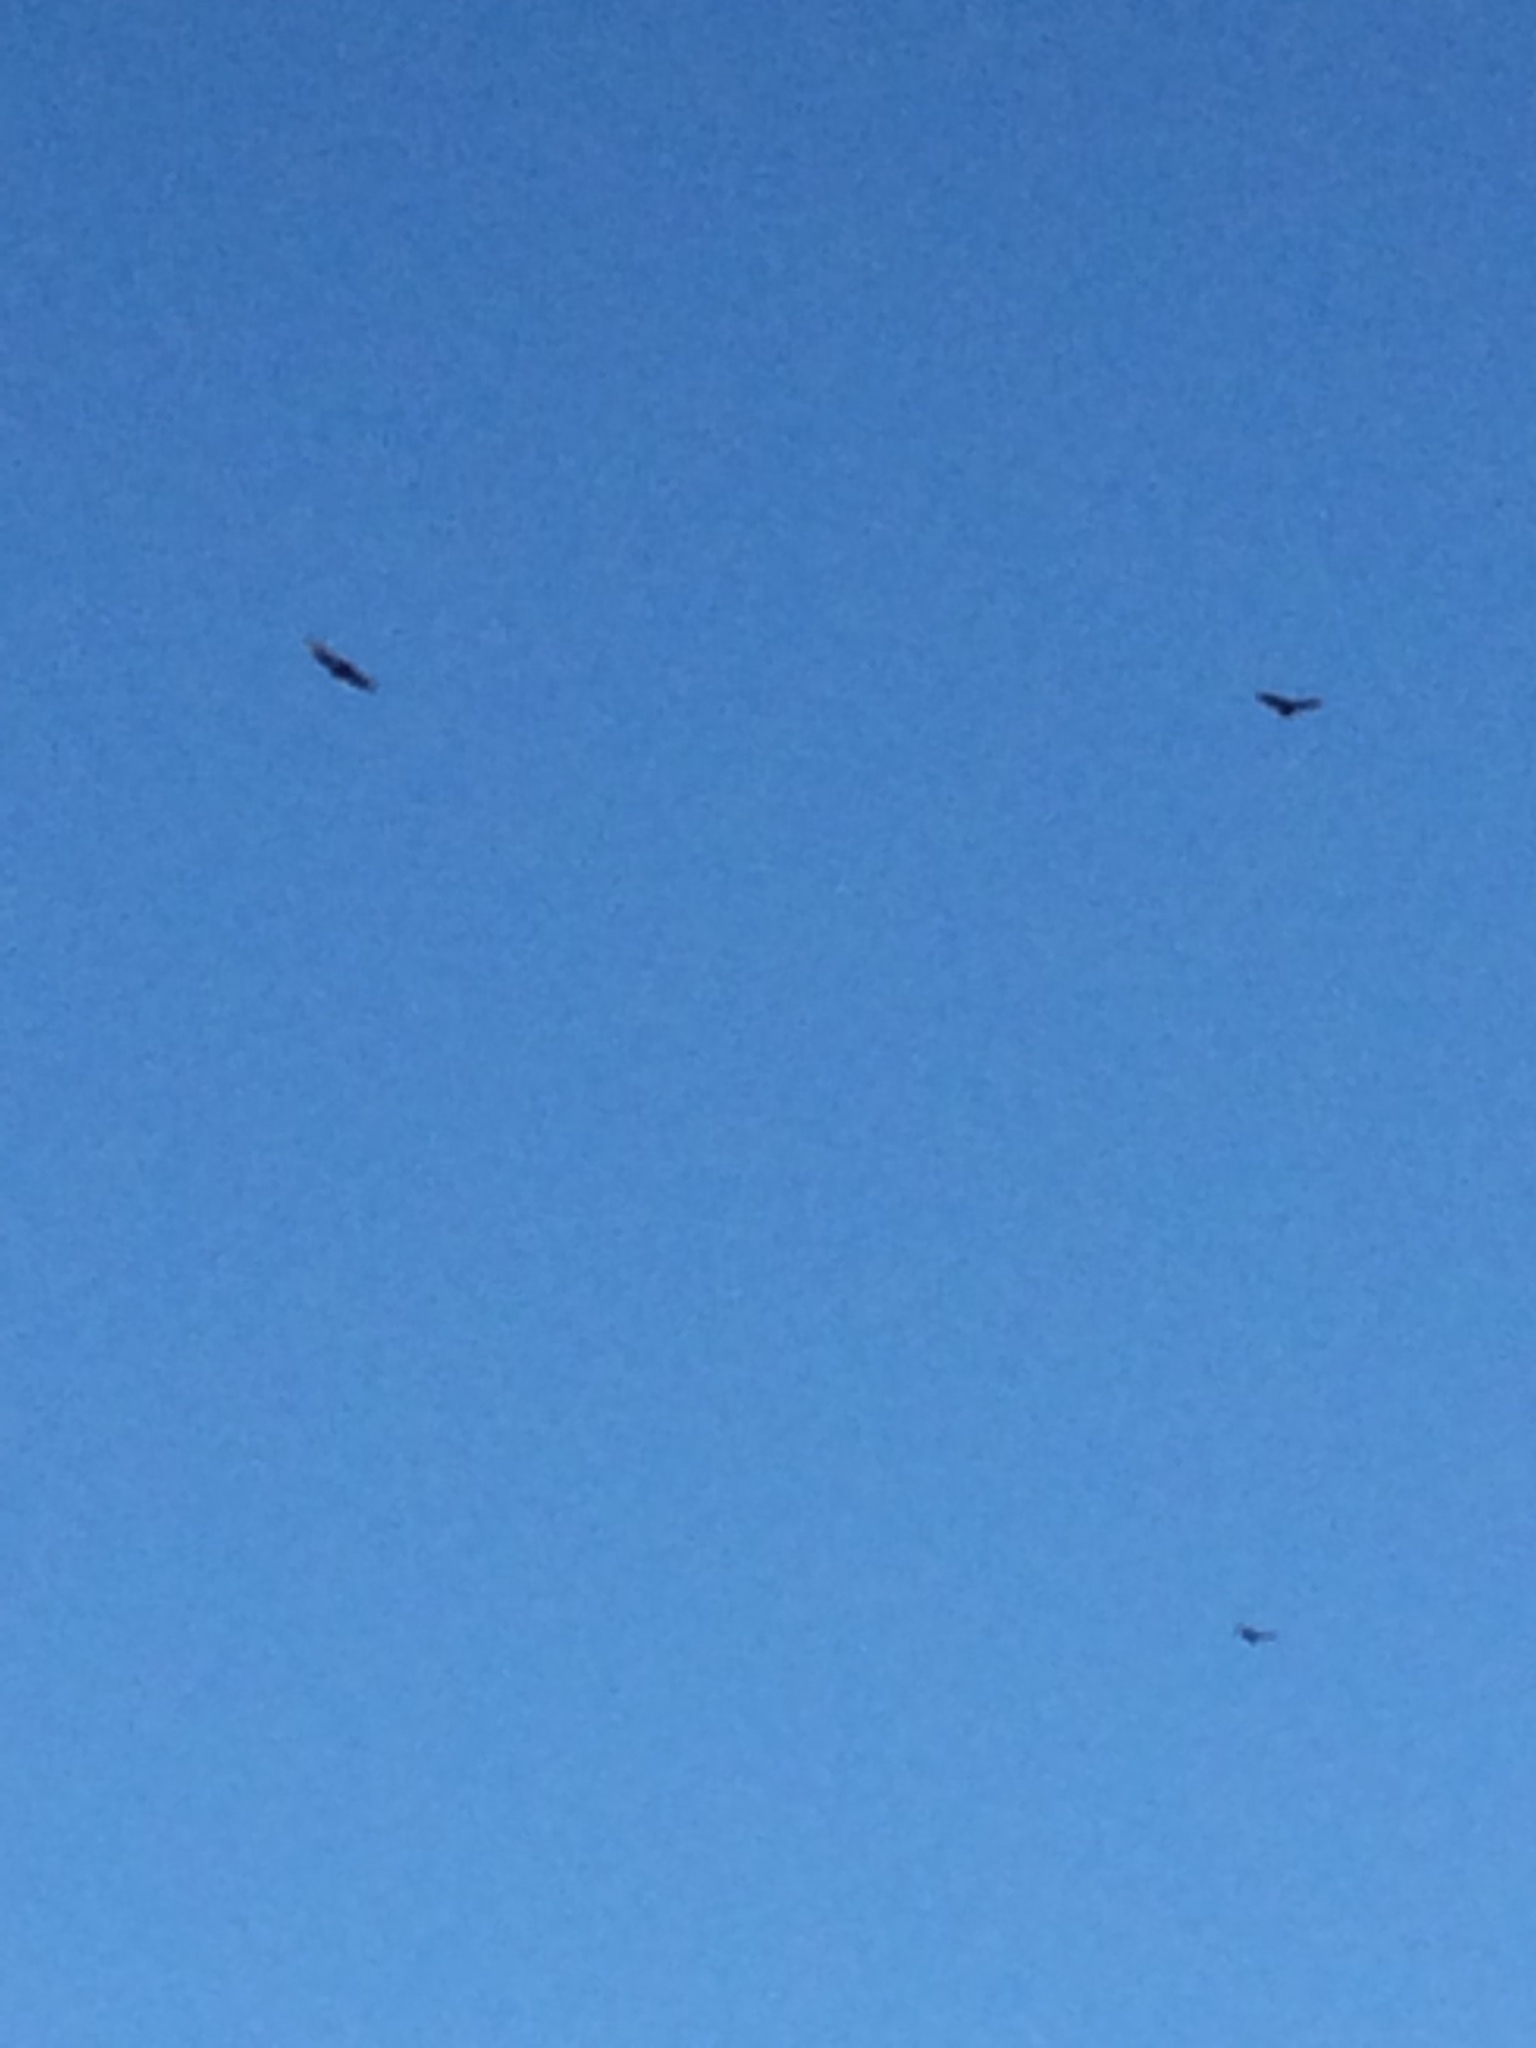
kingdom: Animalia
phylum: Chordata
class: Aves
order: Accipitriformes
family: Cathartidae
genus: Cathartes
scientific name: Cathartes aura
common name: Turkey vulture
